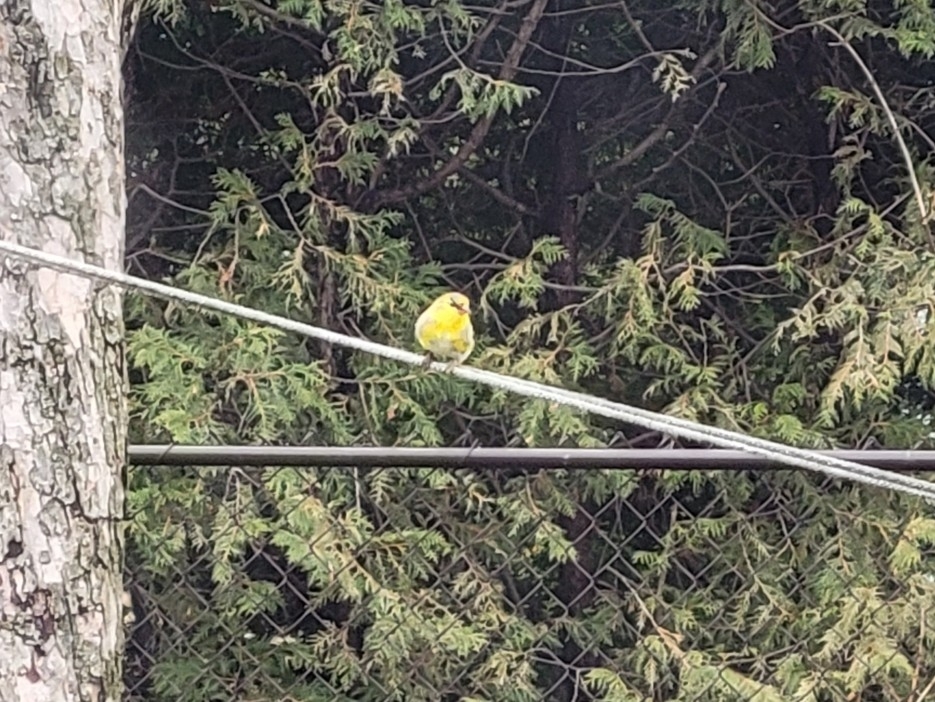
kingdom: Animalia
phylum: Chordata
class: Aves
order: Passeriformes
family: Fringillidae
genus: Spinus
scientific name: Spinus tristis
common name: American goldfinch
